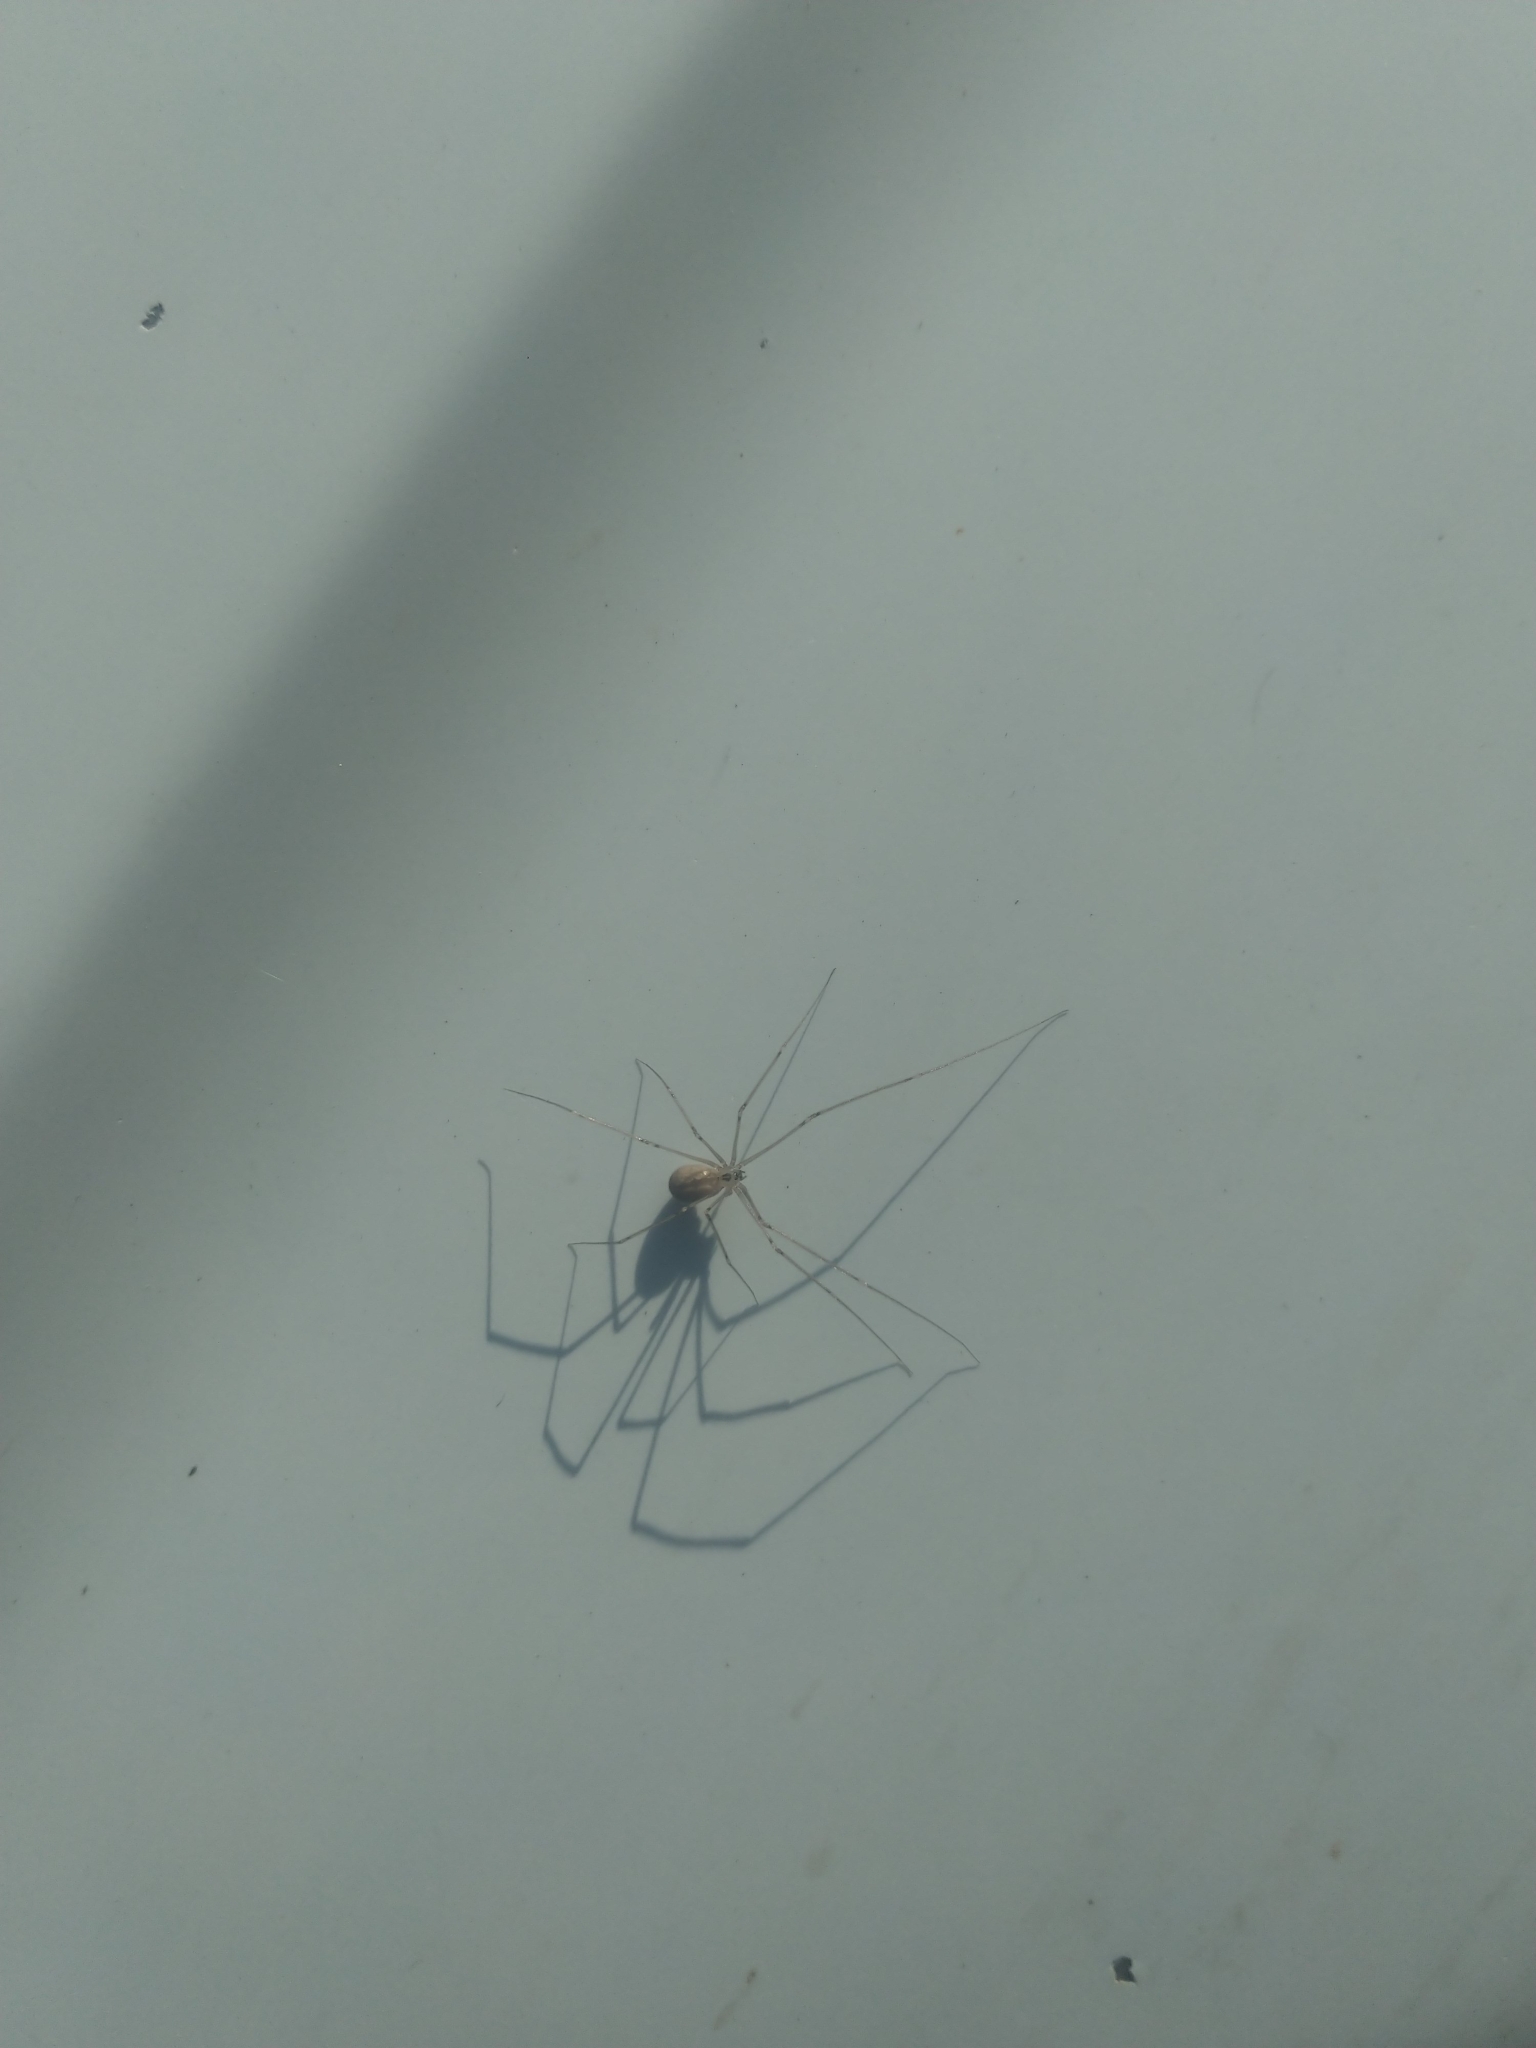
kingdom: Animalia
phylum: Arthropoda
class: Arachnida
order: Araneae
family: Pholcidae
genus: Pholcus
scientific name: Pholcus phalangioides
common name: Longbodied cellar spider
